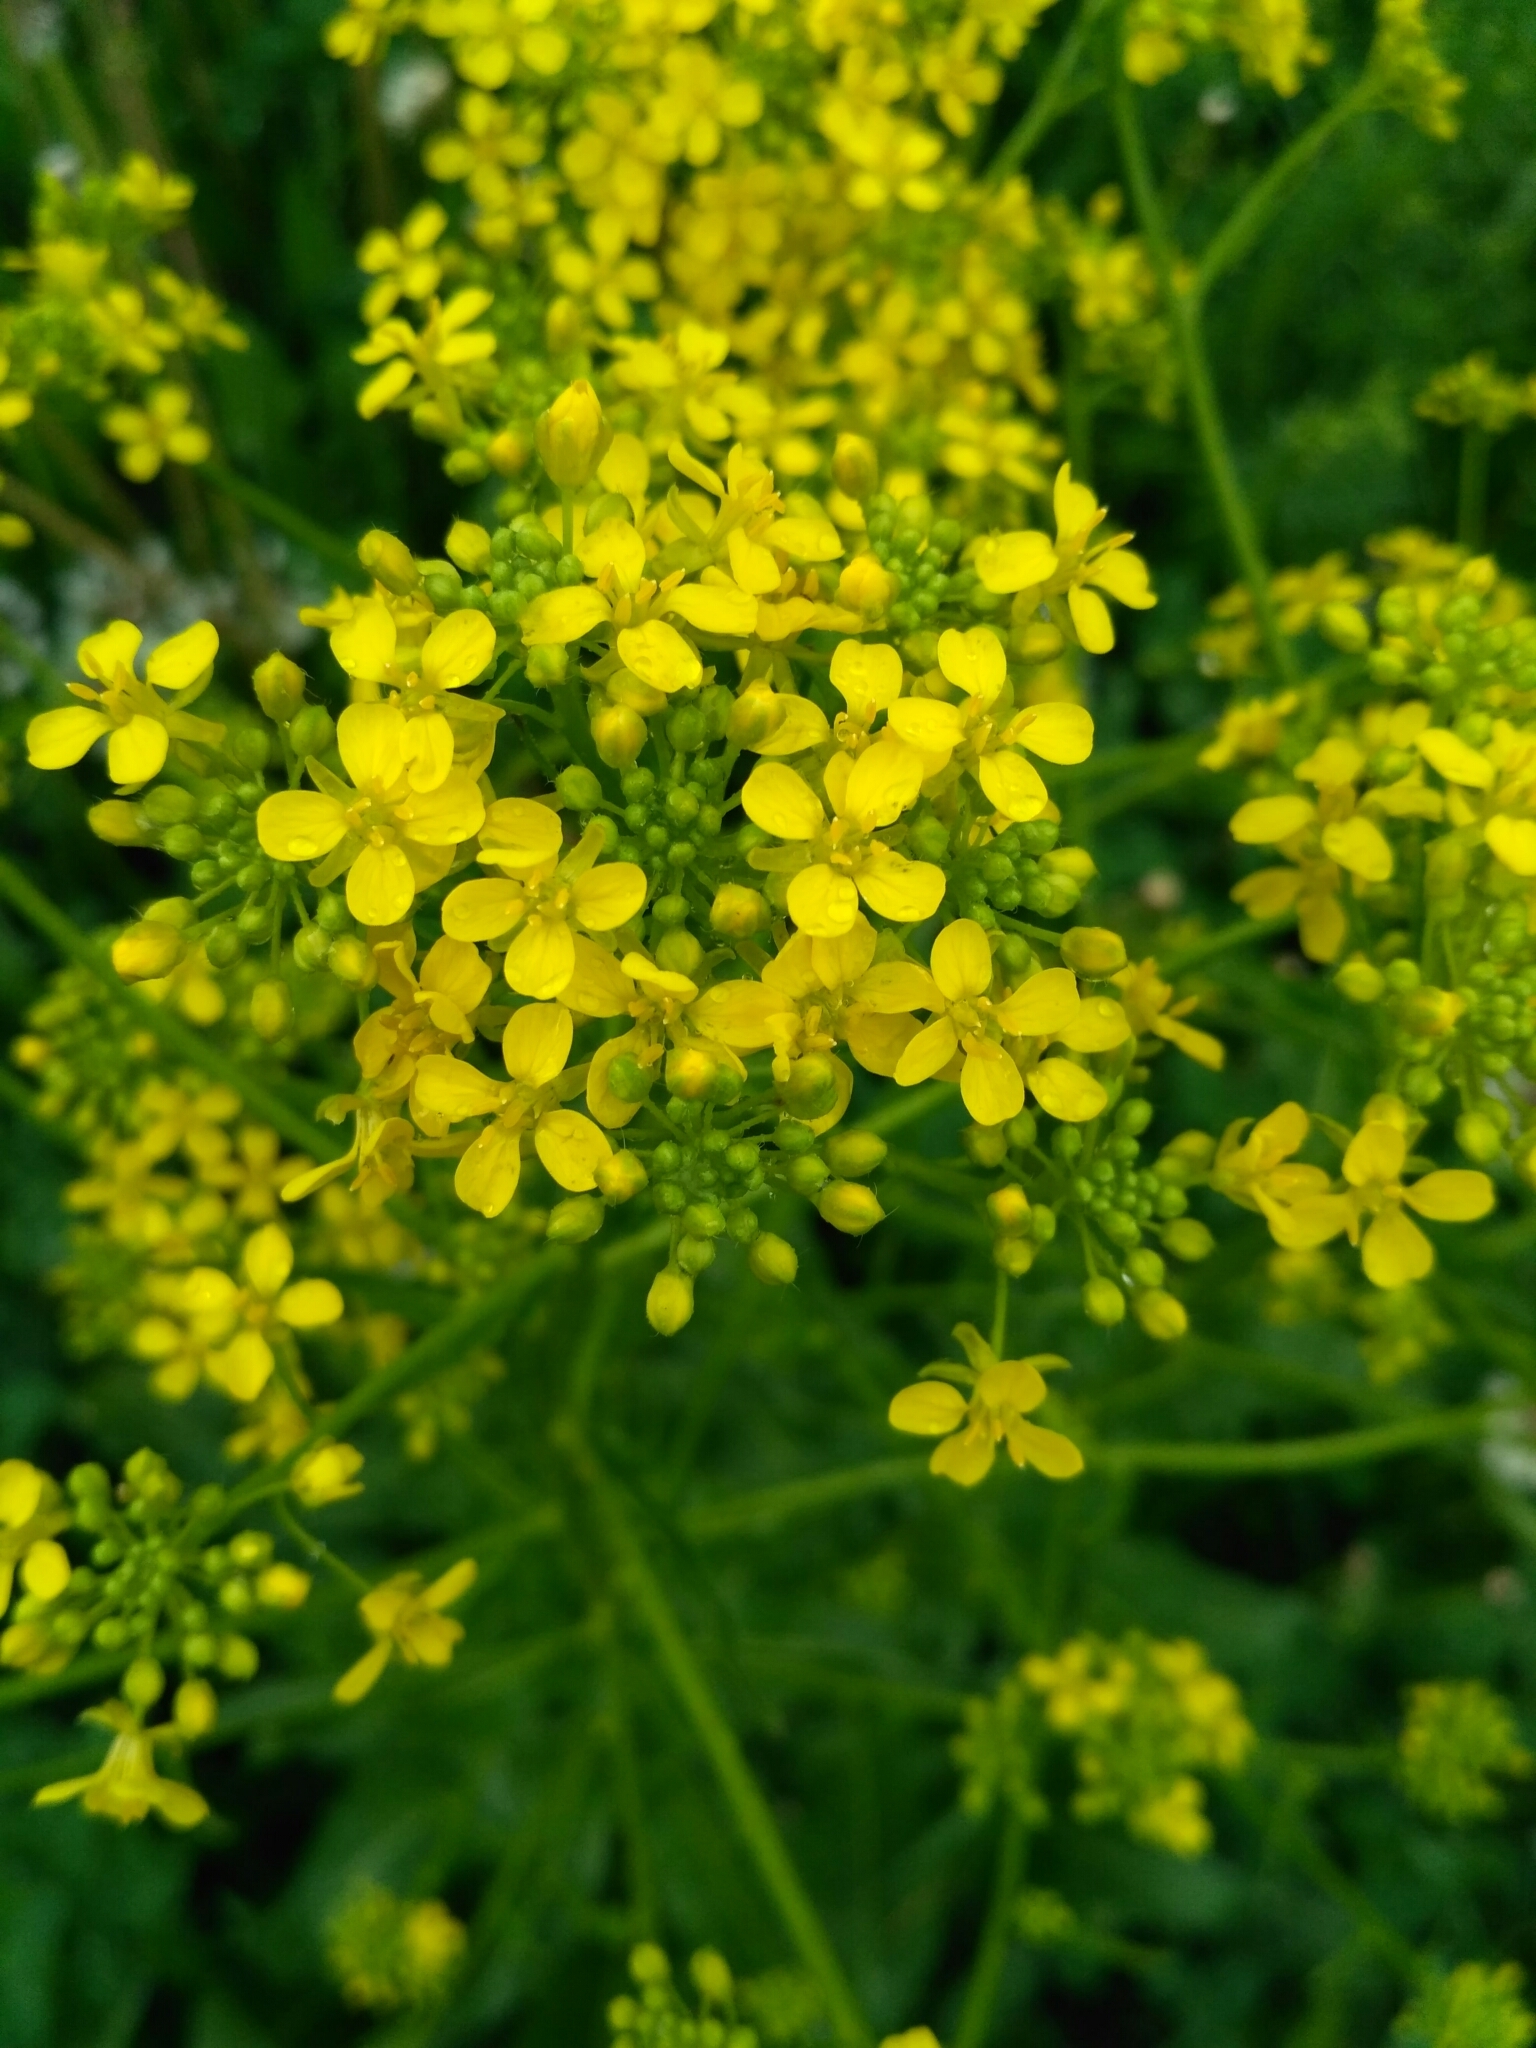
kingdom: Plantae
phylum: Tracheophyta
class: Magnoliopsida
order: Brassicales
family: Brassicaceae
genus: Bunias
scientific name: Bunias orientalis
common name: Warty-cabbage
